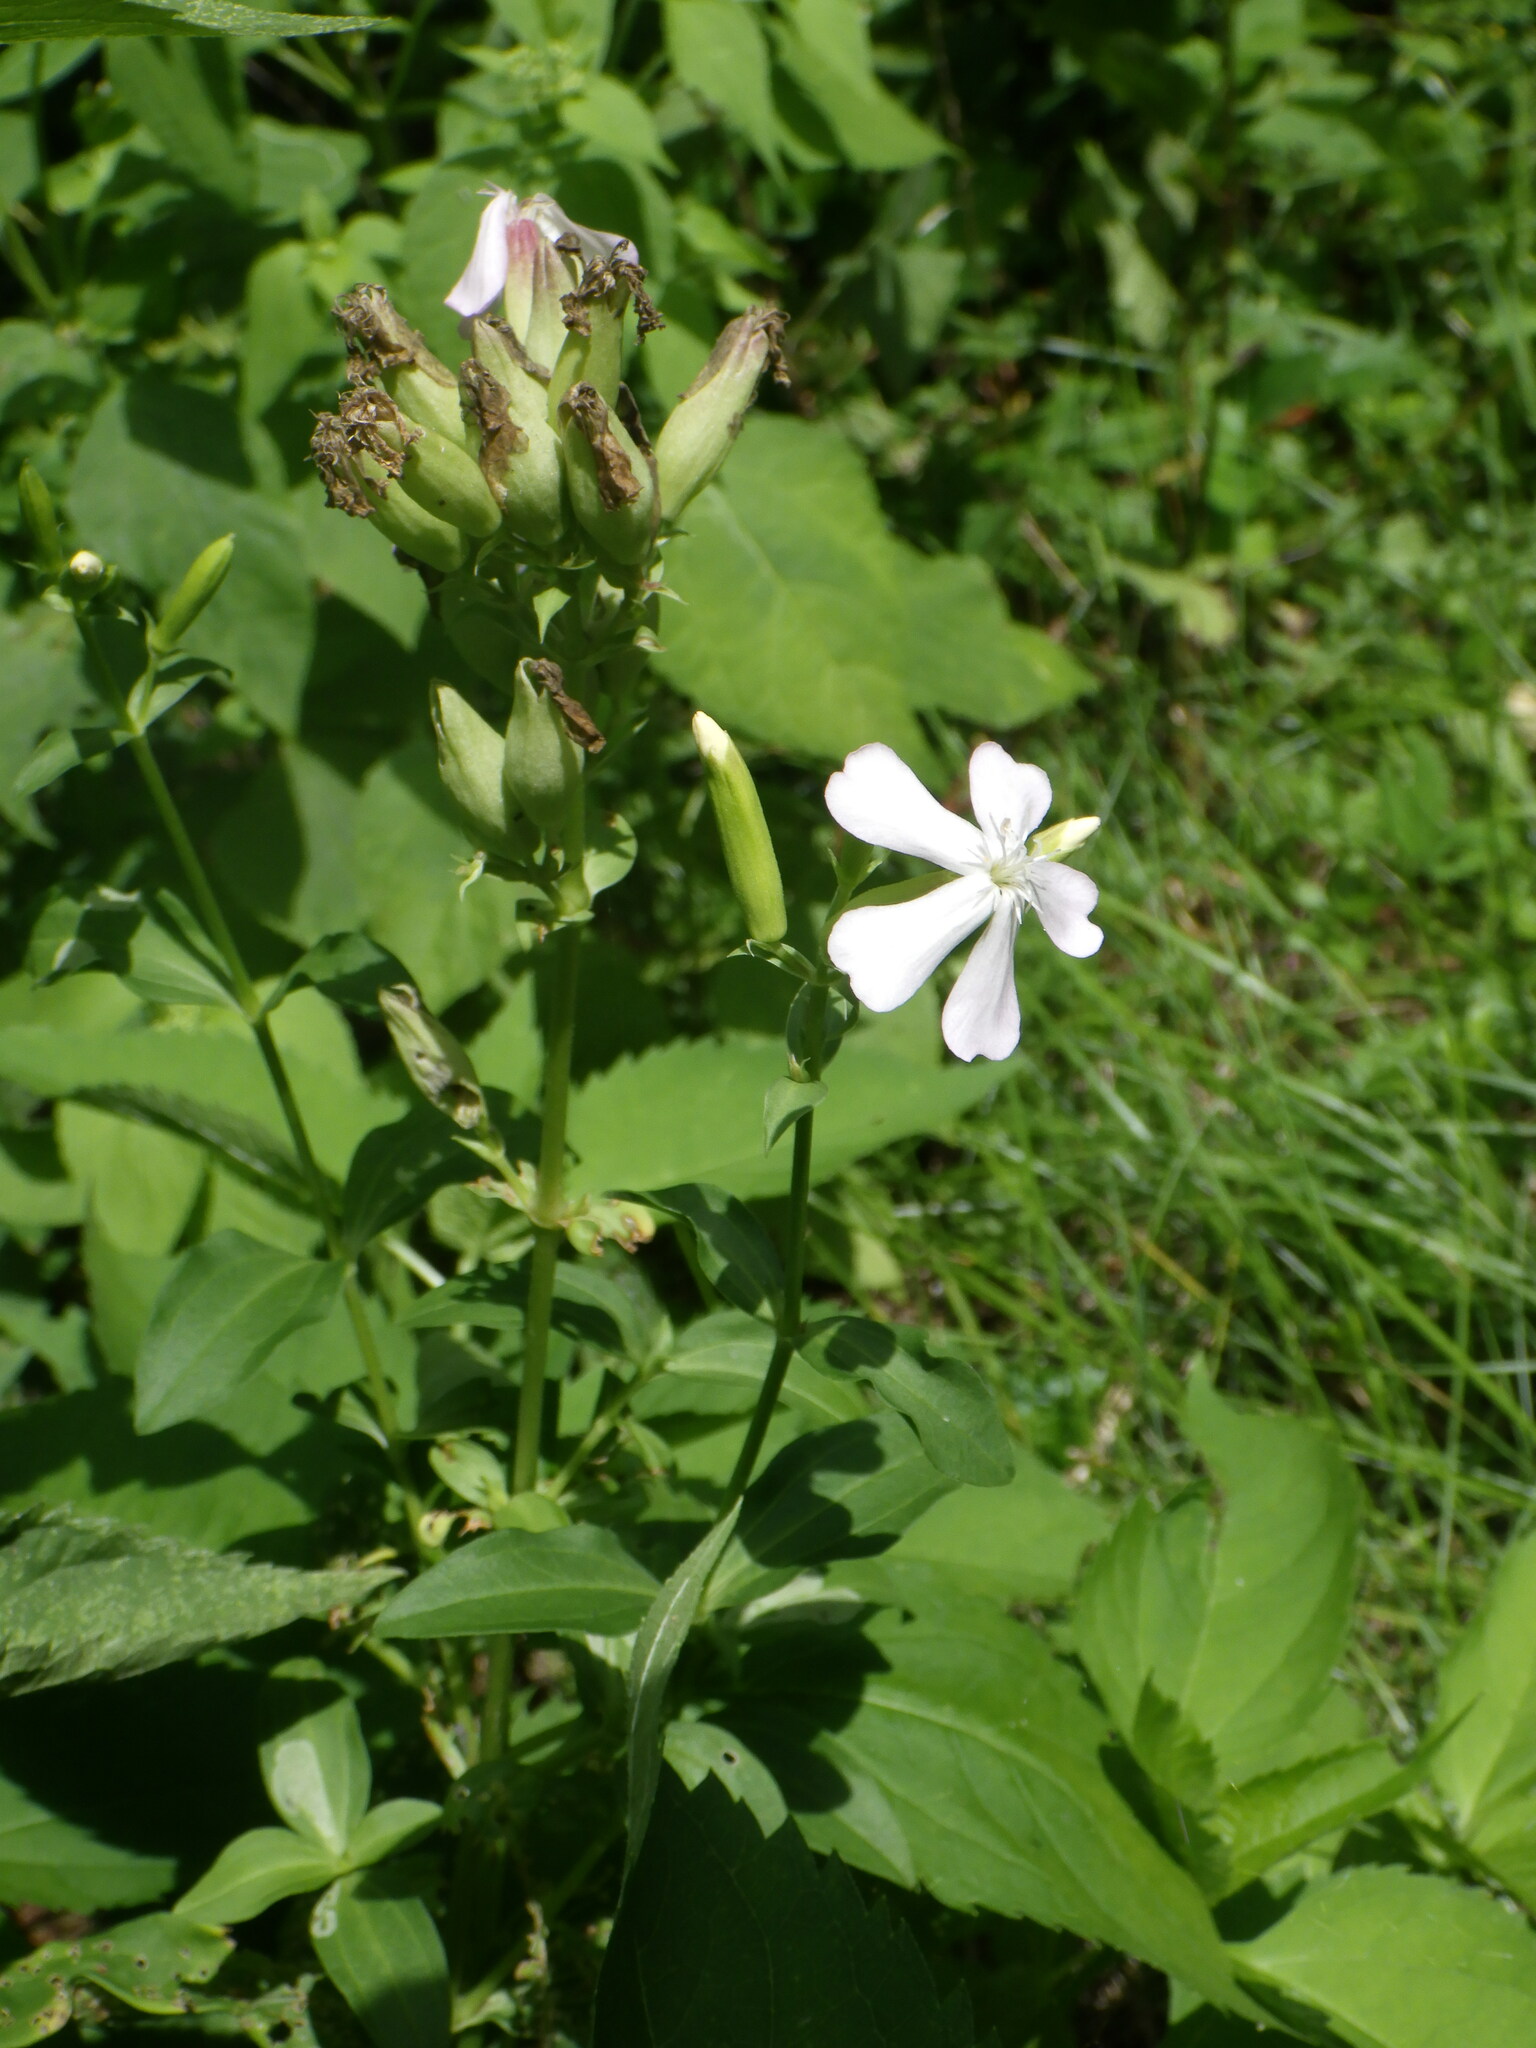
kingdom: Plantae
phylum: Tracheophyta
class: Magnoliopsida
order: Caryophyllales
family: Caryophyllaceae
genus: Saponaria
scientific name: Saponaria officinalis
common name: Soapwort
